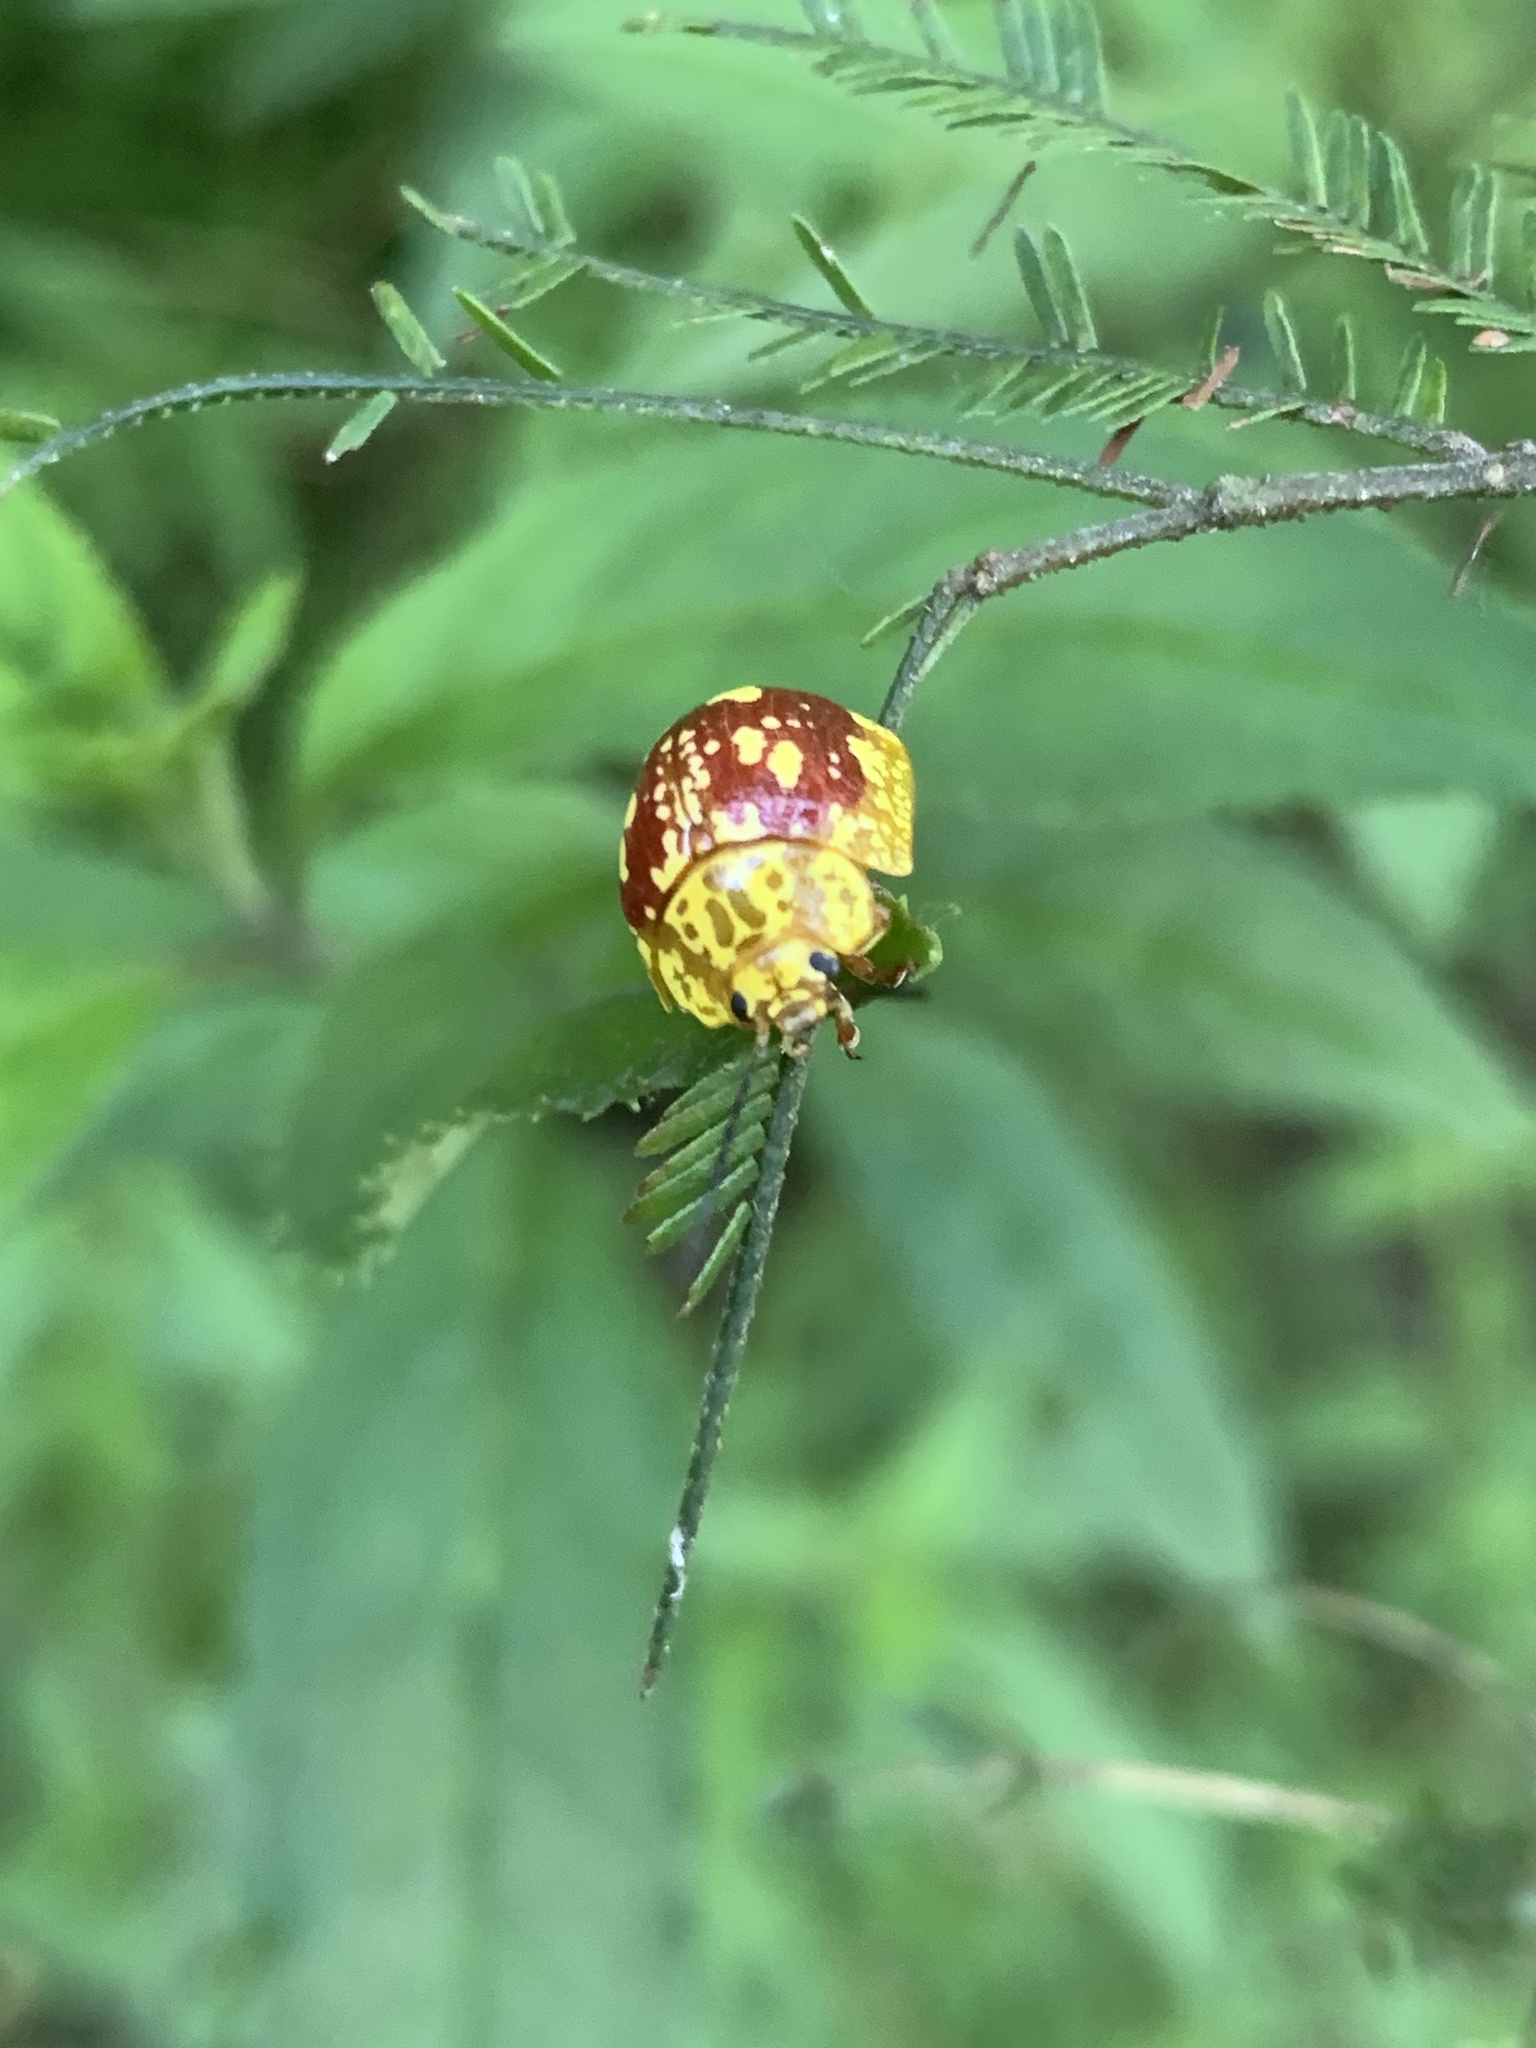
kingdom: Animalia
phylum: Arthropoda
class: Insecta
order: Coleoptera
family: Chrysomelidae
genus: Paropsis
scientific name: Paropsis maculata
